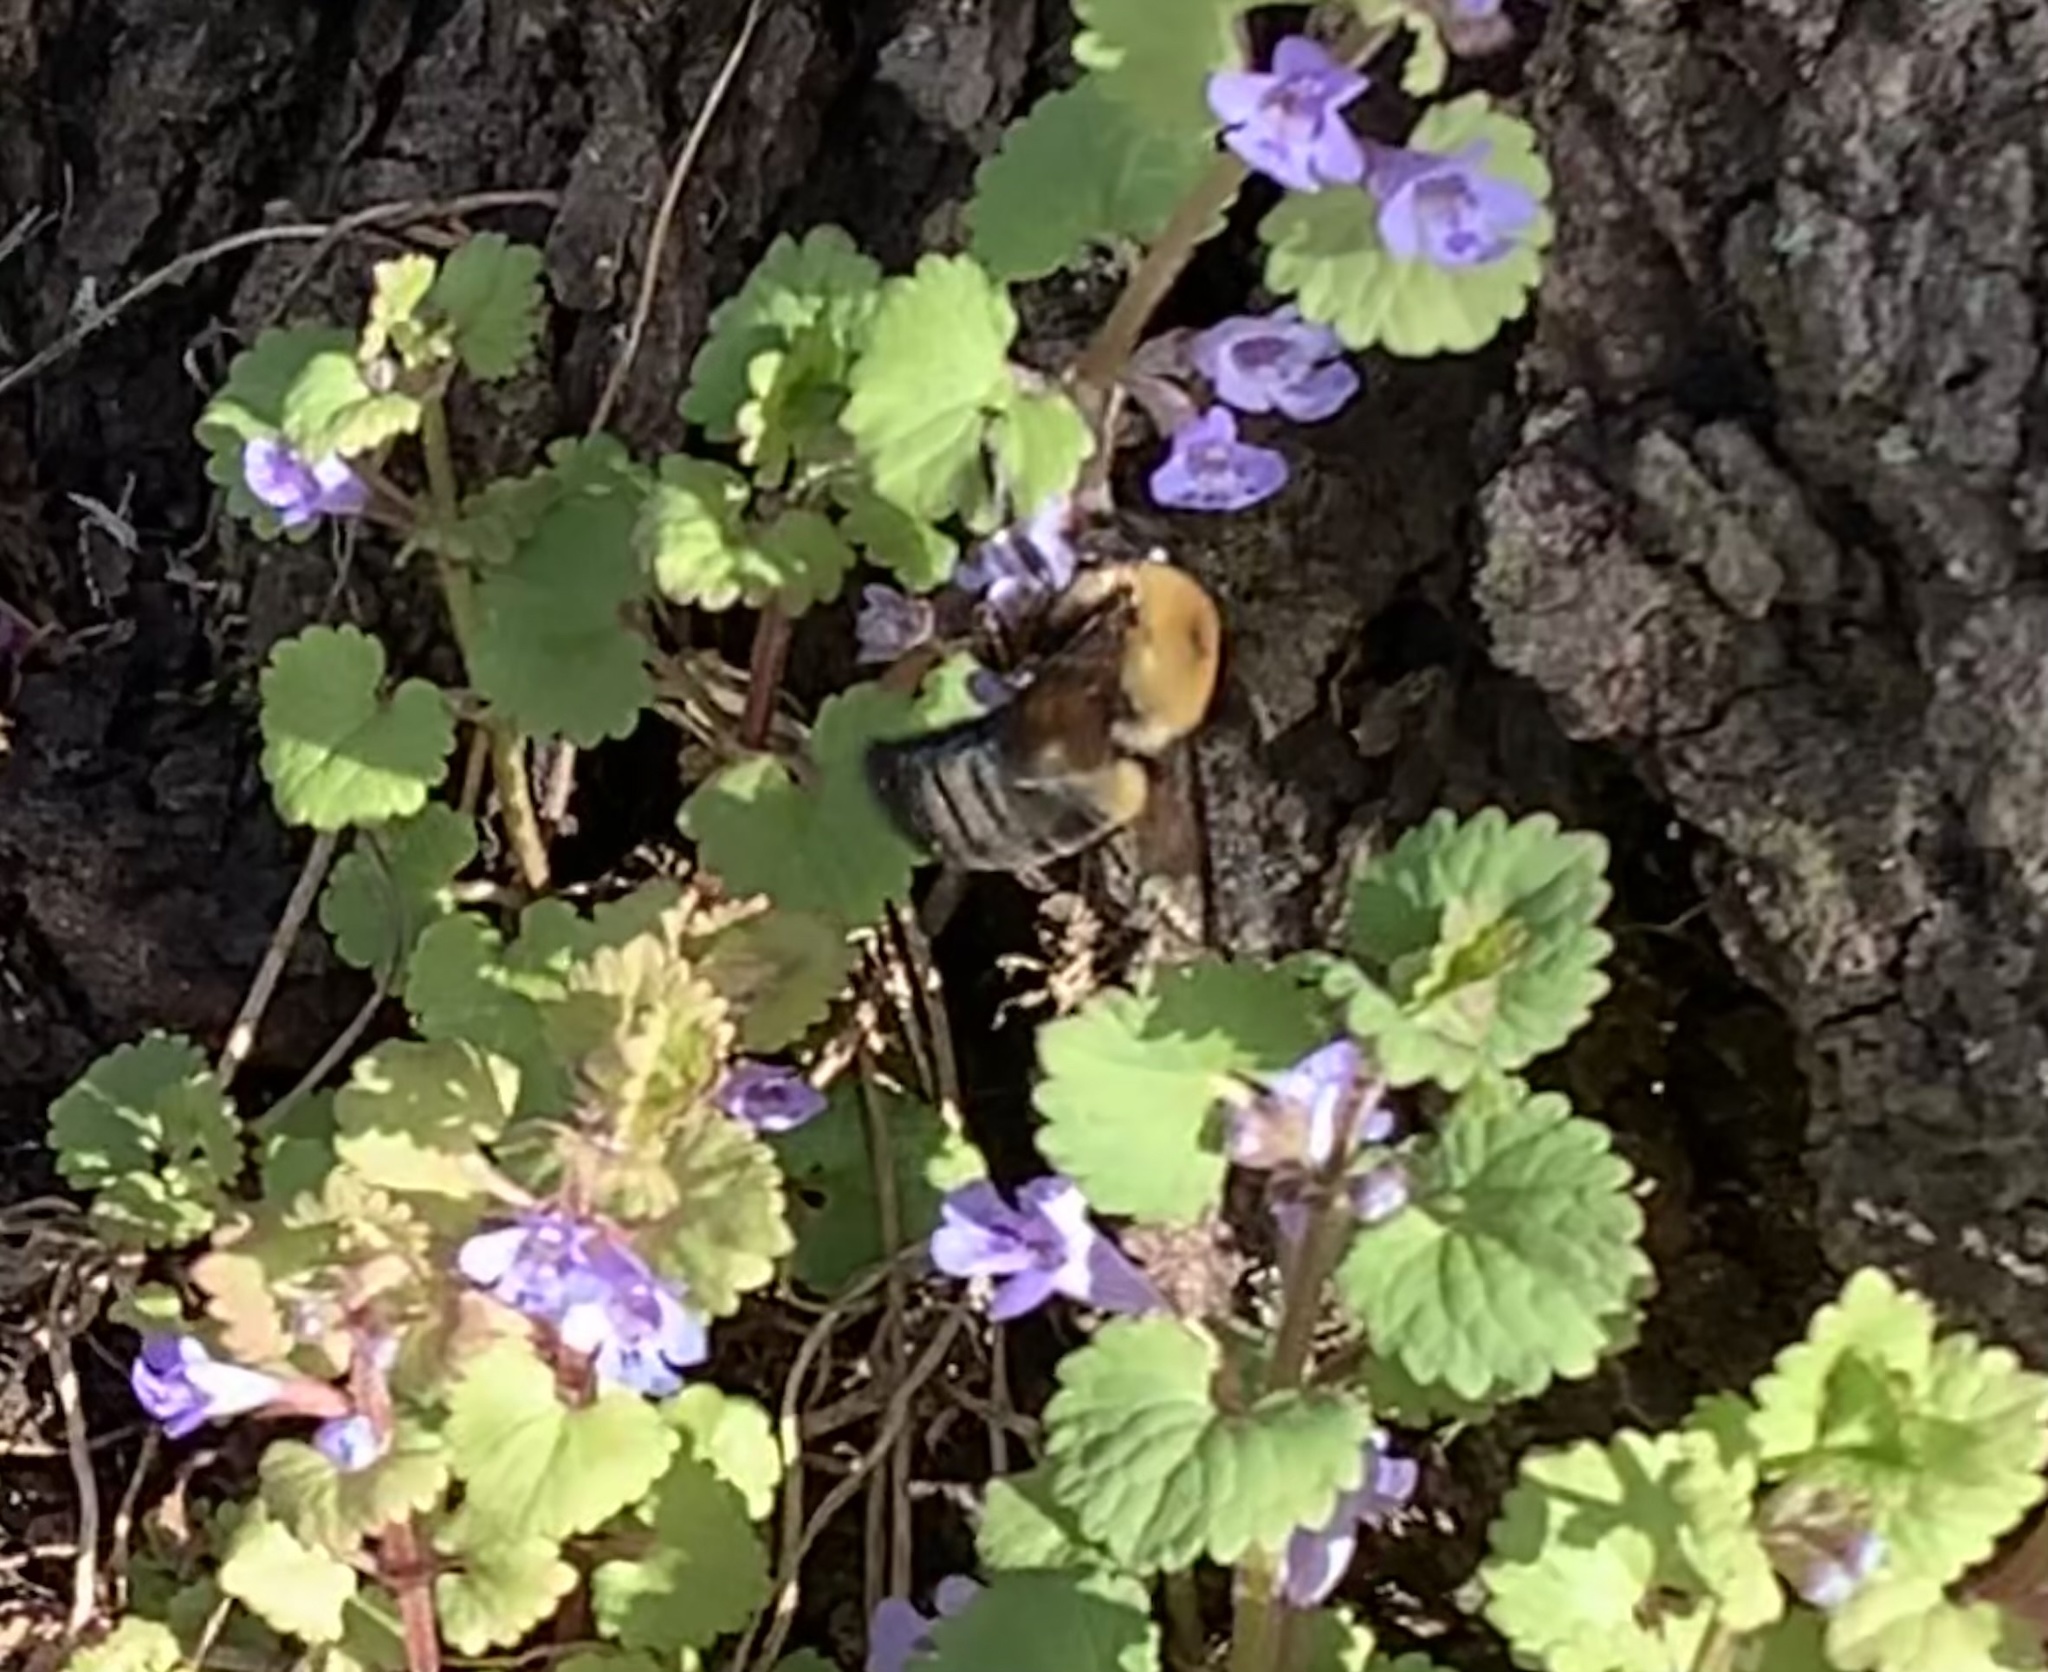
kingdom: Animalia
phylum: Arthropoda
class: Insecta
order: Hymenoptera
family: Apidae
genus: Xylocopa
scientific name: Xylocopa virginica
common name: Carpenter bee
